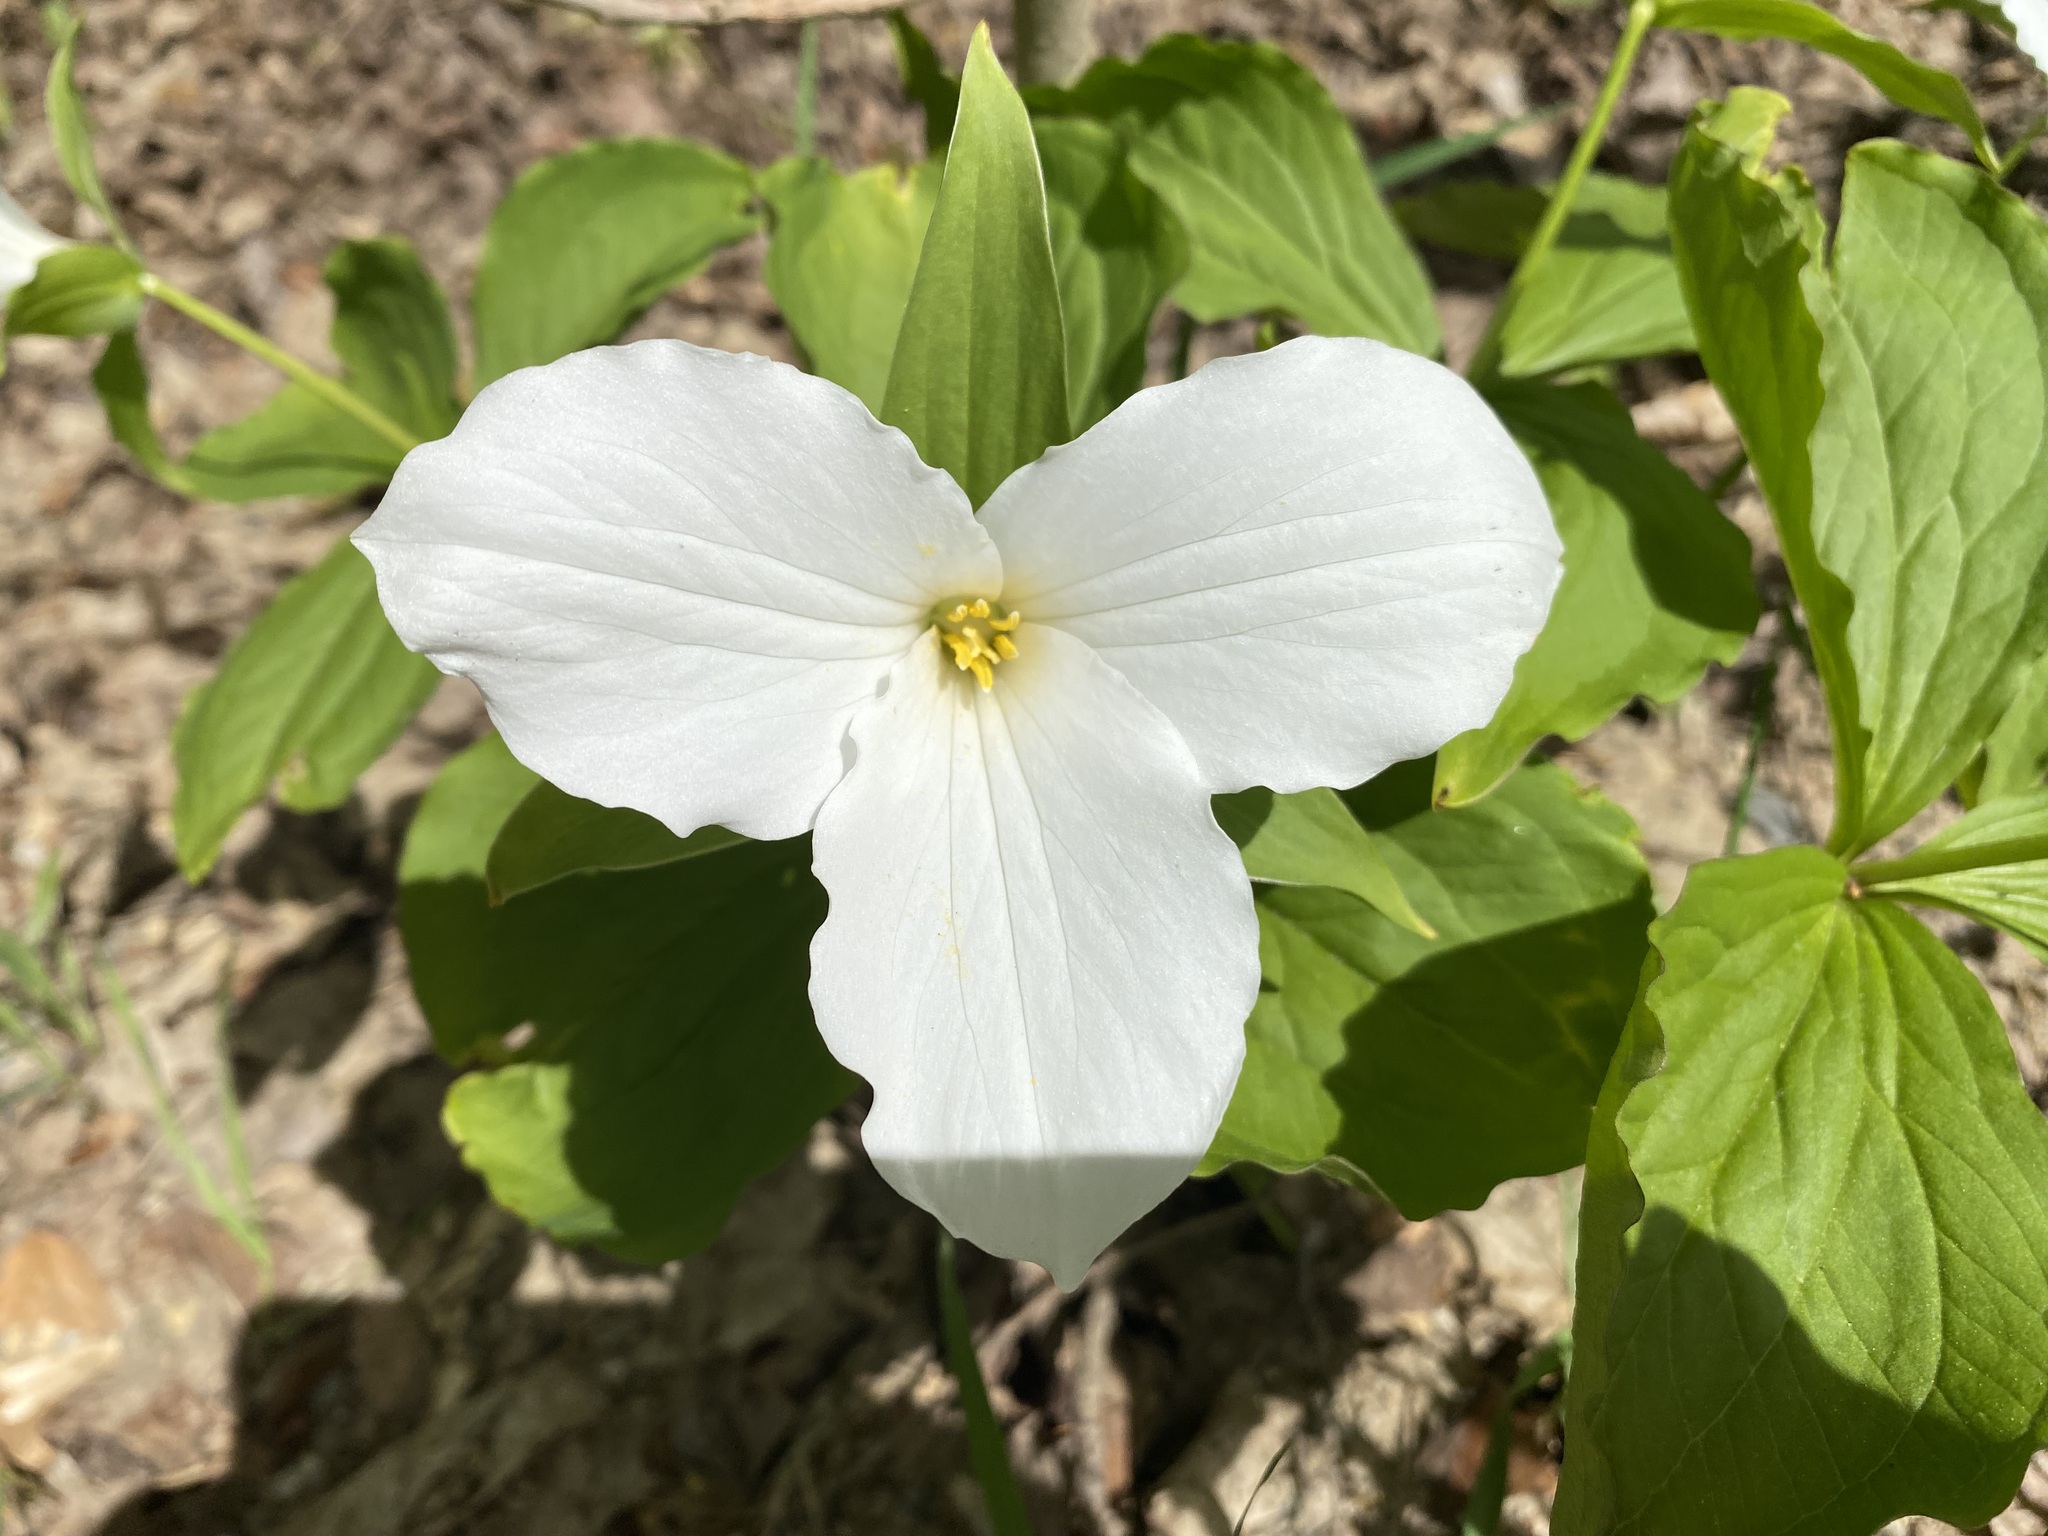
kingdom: Plantae
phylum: Tracheophyta
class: Liliopsida
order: Liliales
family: Melanthiaceae
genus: Trillium
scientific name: Trillium grandiflorum
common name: Great white trillium
